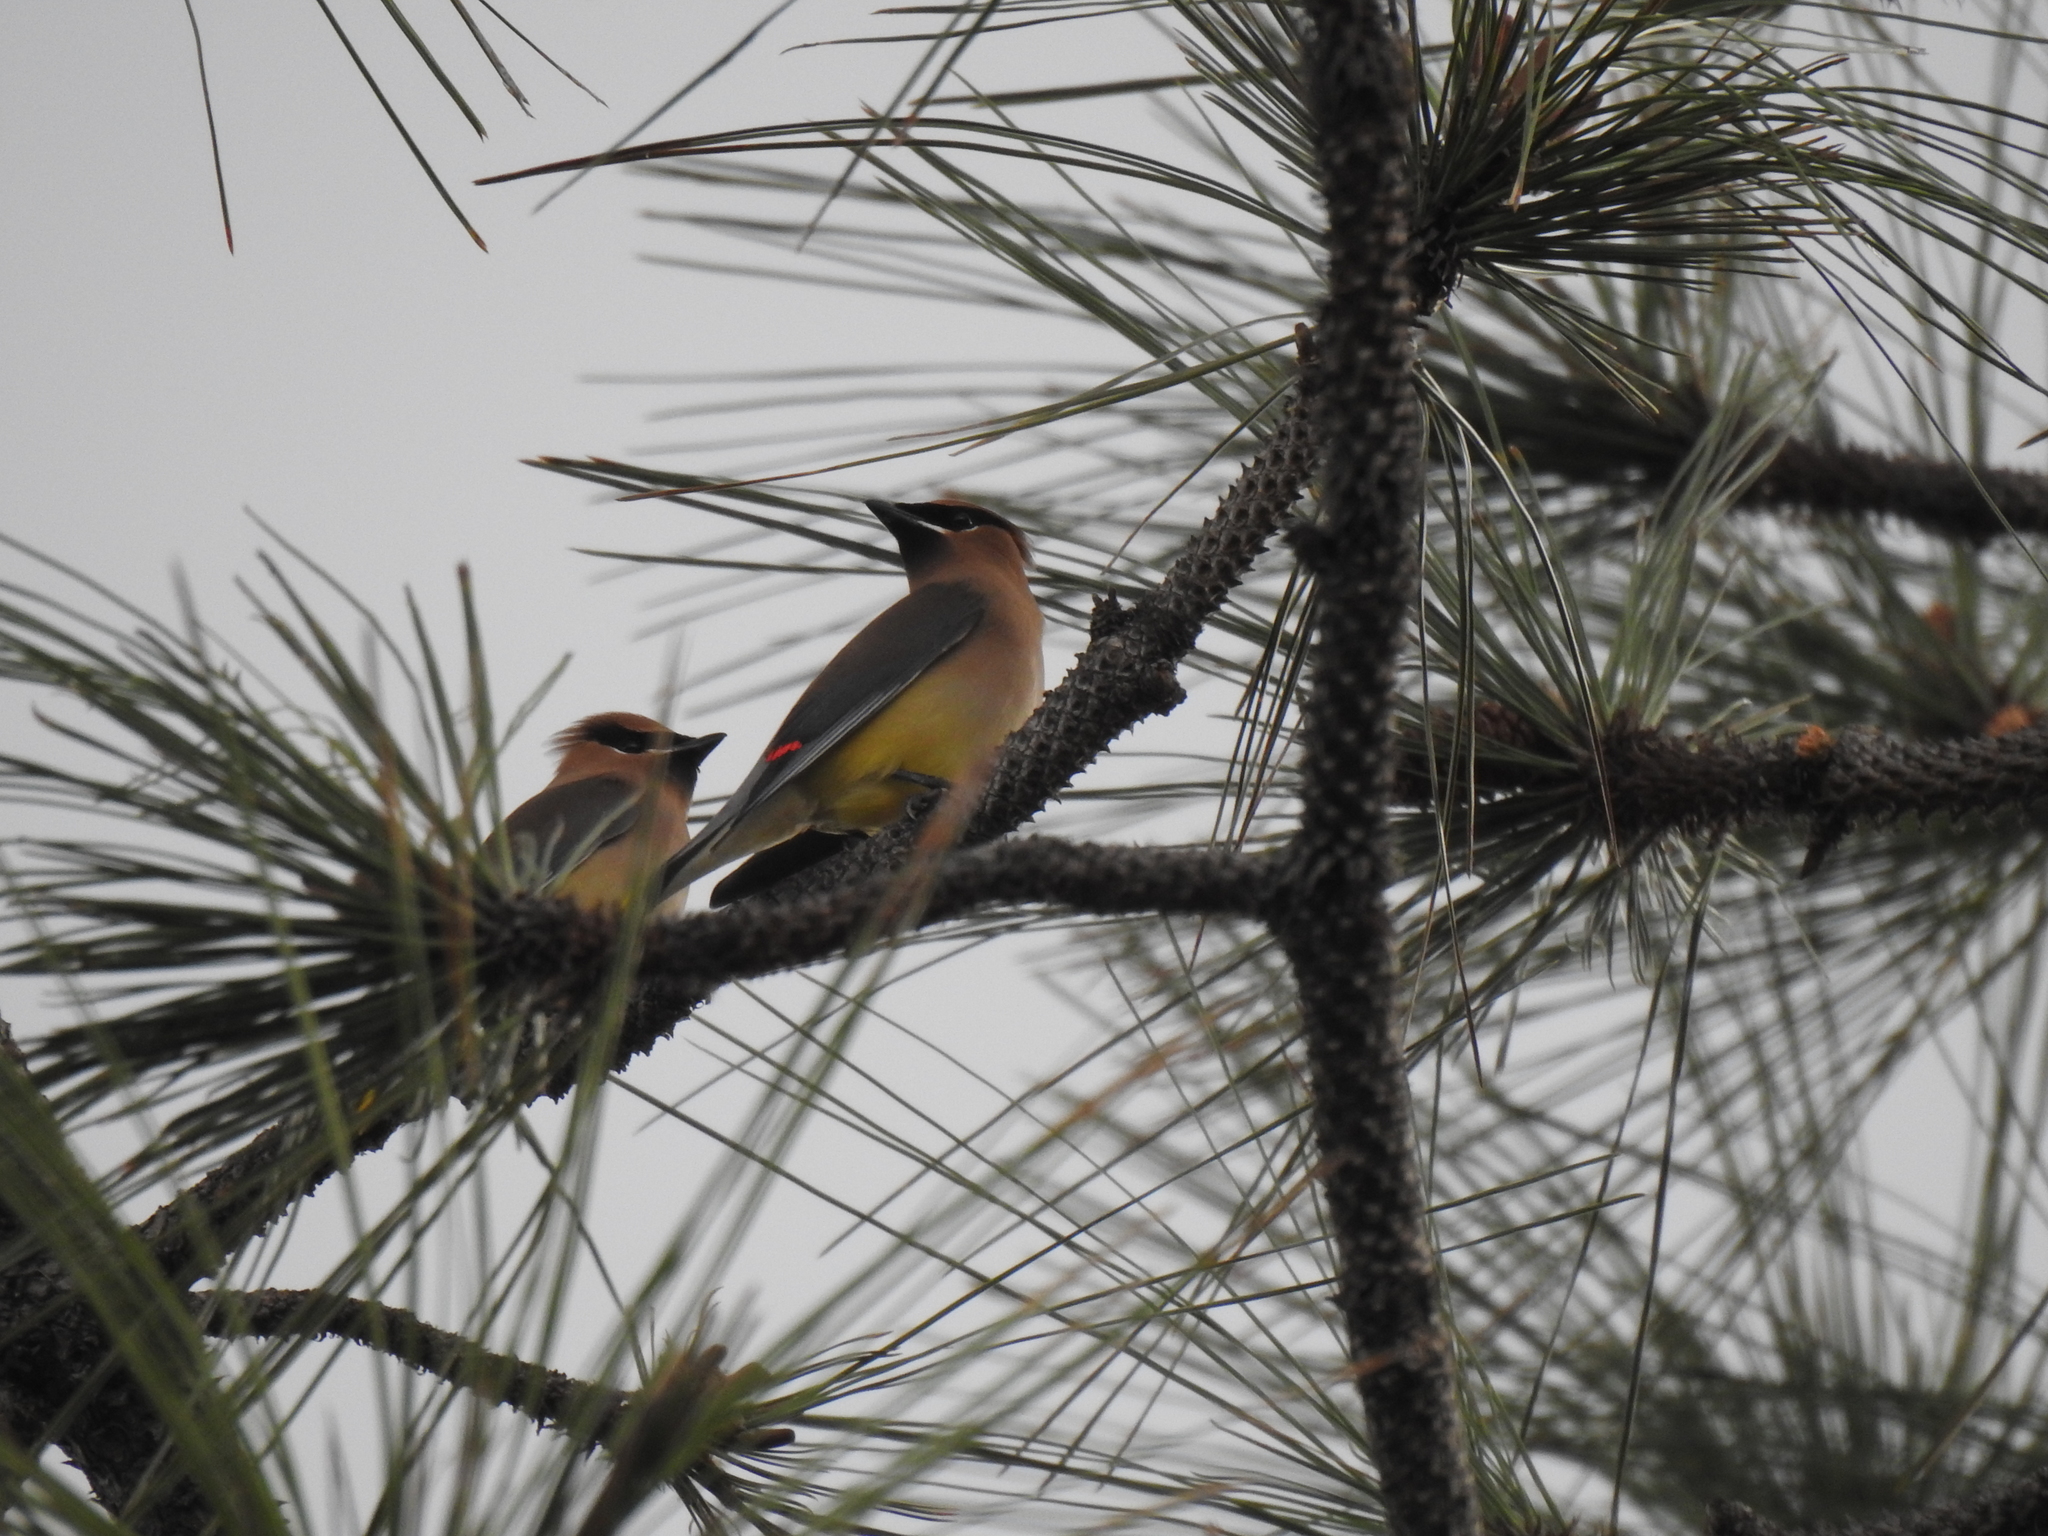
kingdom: Animalia
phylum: Chordata
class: Aves
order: Passeriformes
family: Bombycillidae
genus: Bombycilla
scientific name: Bombycilla cedrorum
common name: Cedar waxwing
